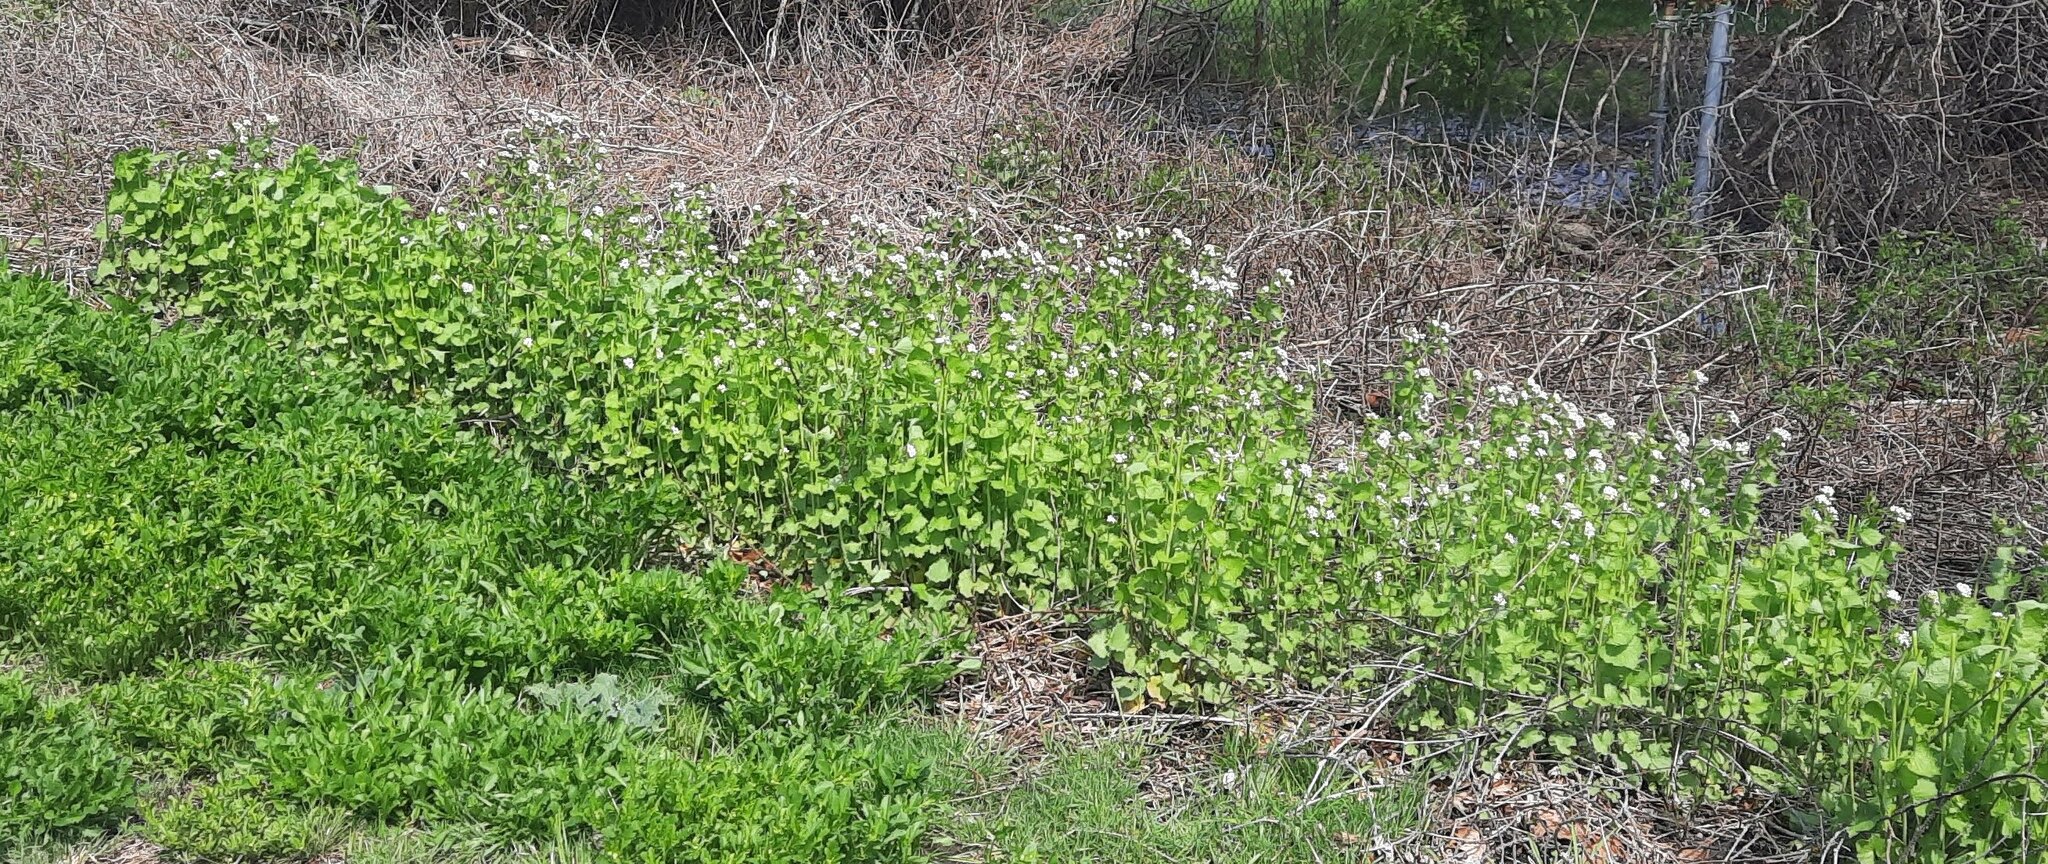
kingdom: Plantae
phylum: Tracheophyta
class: Magnoliopsida
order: Brassicales
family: Brassicaceae
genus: Alliaria
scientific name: Alliaria petiolata
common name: Garlic mustard
